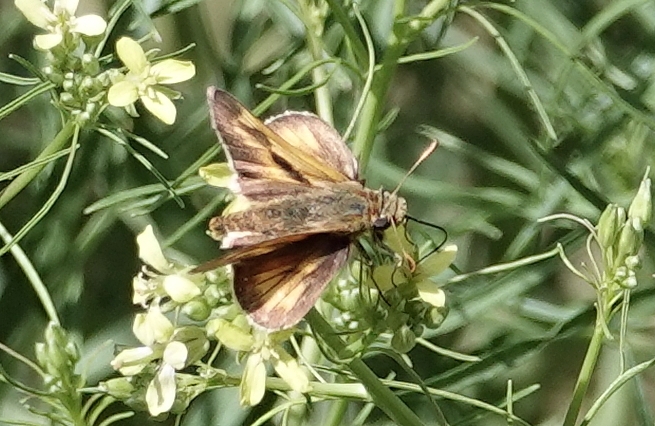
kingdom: Animalia
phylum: Arthropoda
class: Insecta
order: Lepidoptera
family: Hesperiidae
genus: Polites
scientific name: Polites mystic
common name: Long dash
